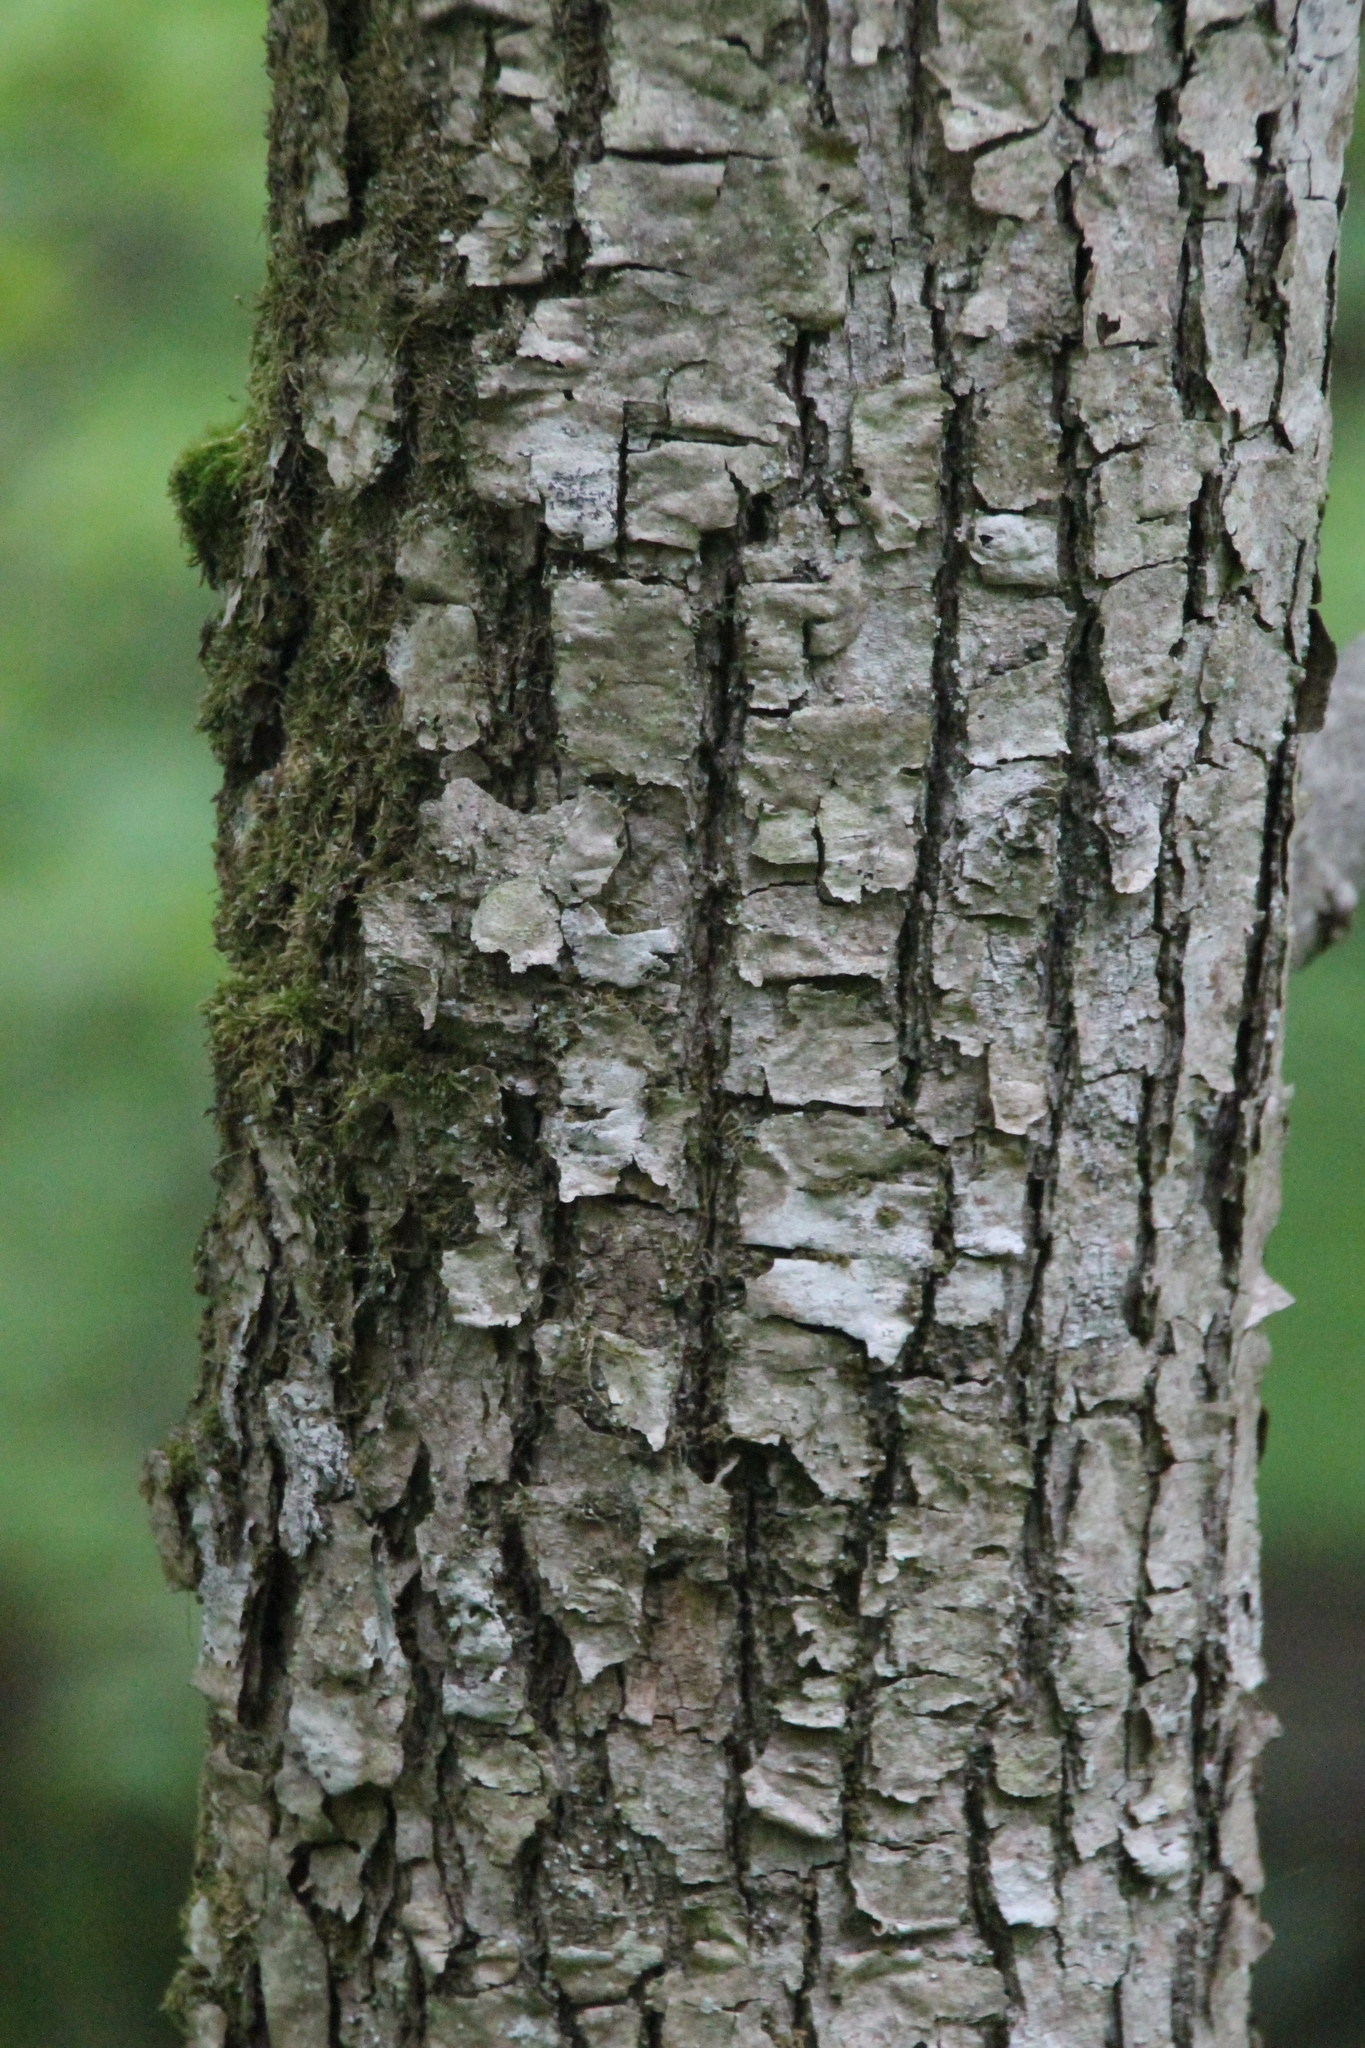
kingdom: Plantae
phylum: Tracheophyta
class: Magnoliopsida
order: Malvales
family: Malvaceae
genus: Tilia
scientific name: Tilia cordata
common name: Small-leaved lime
